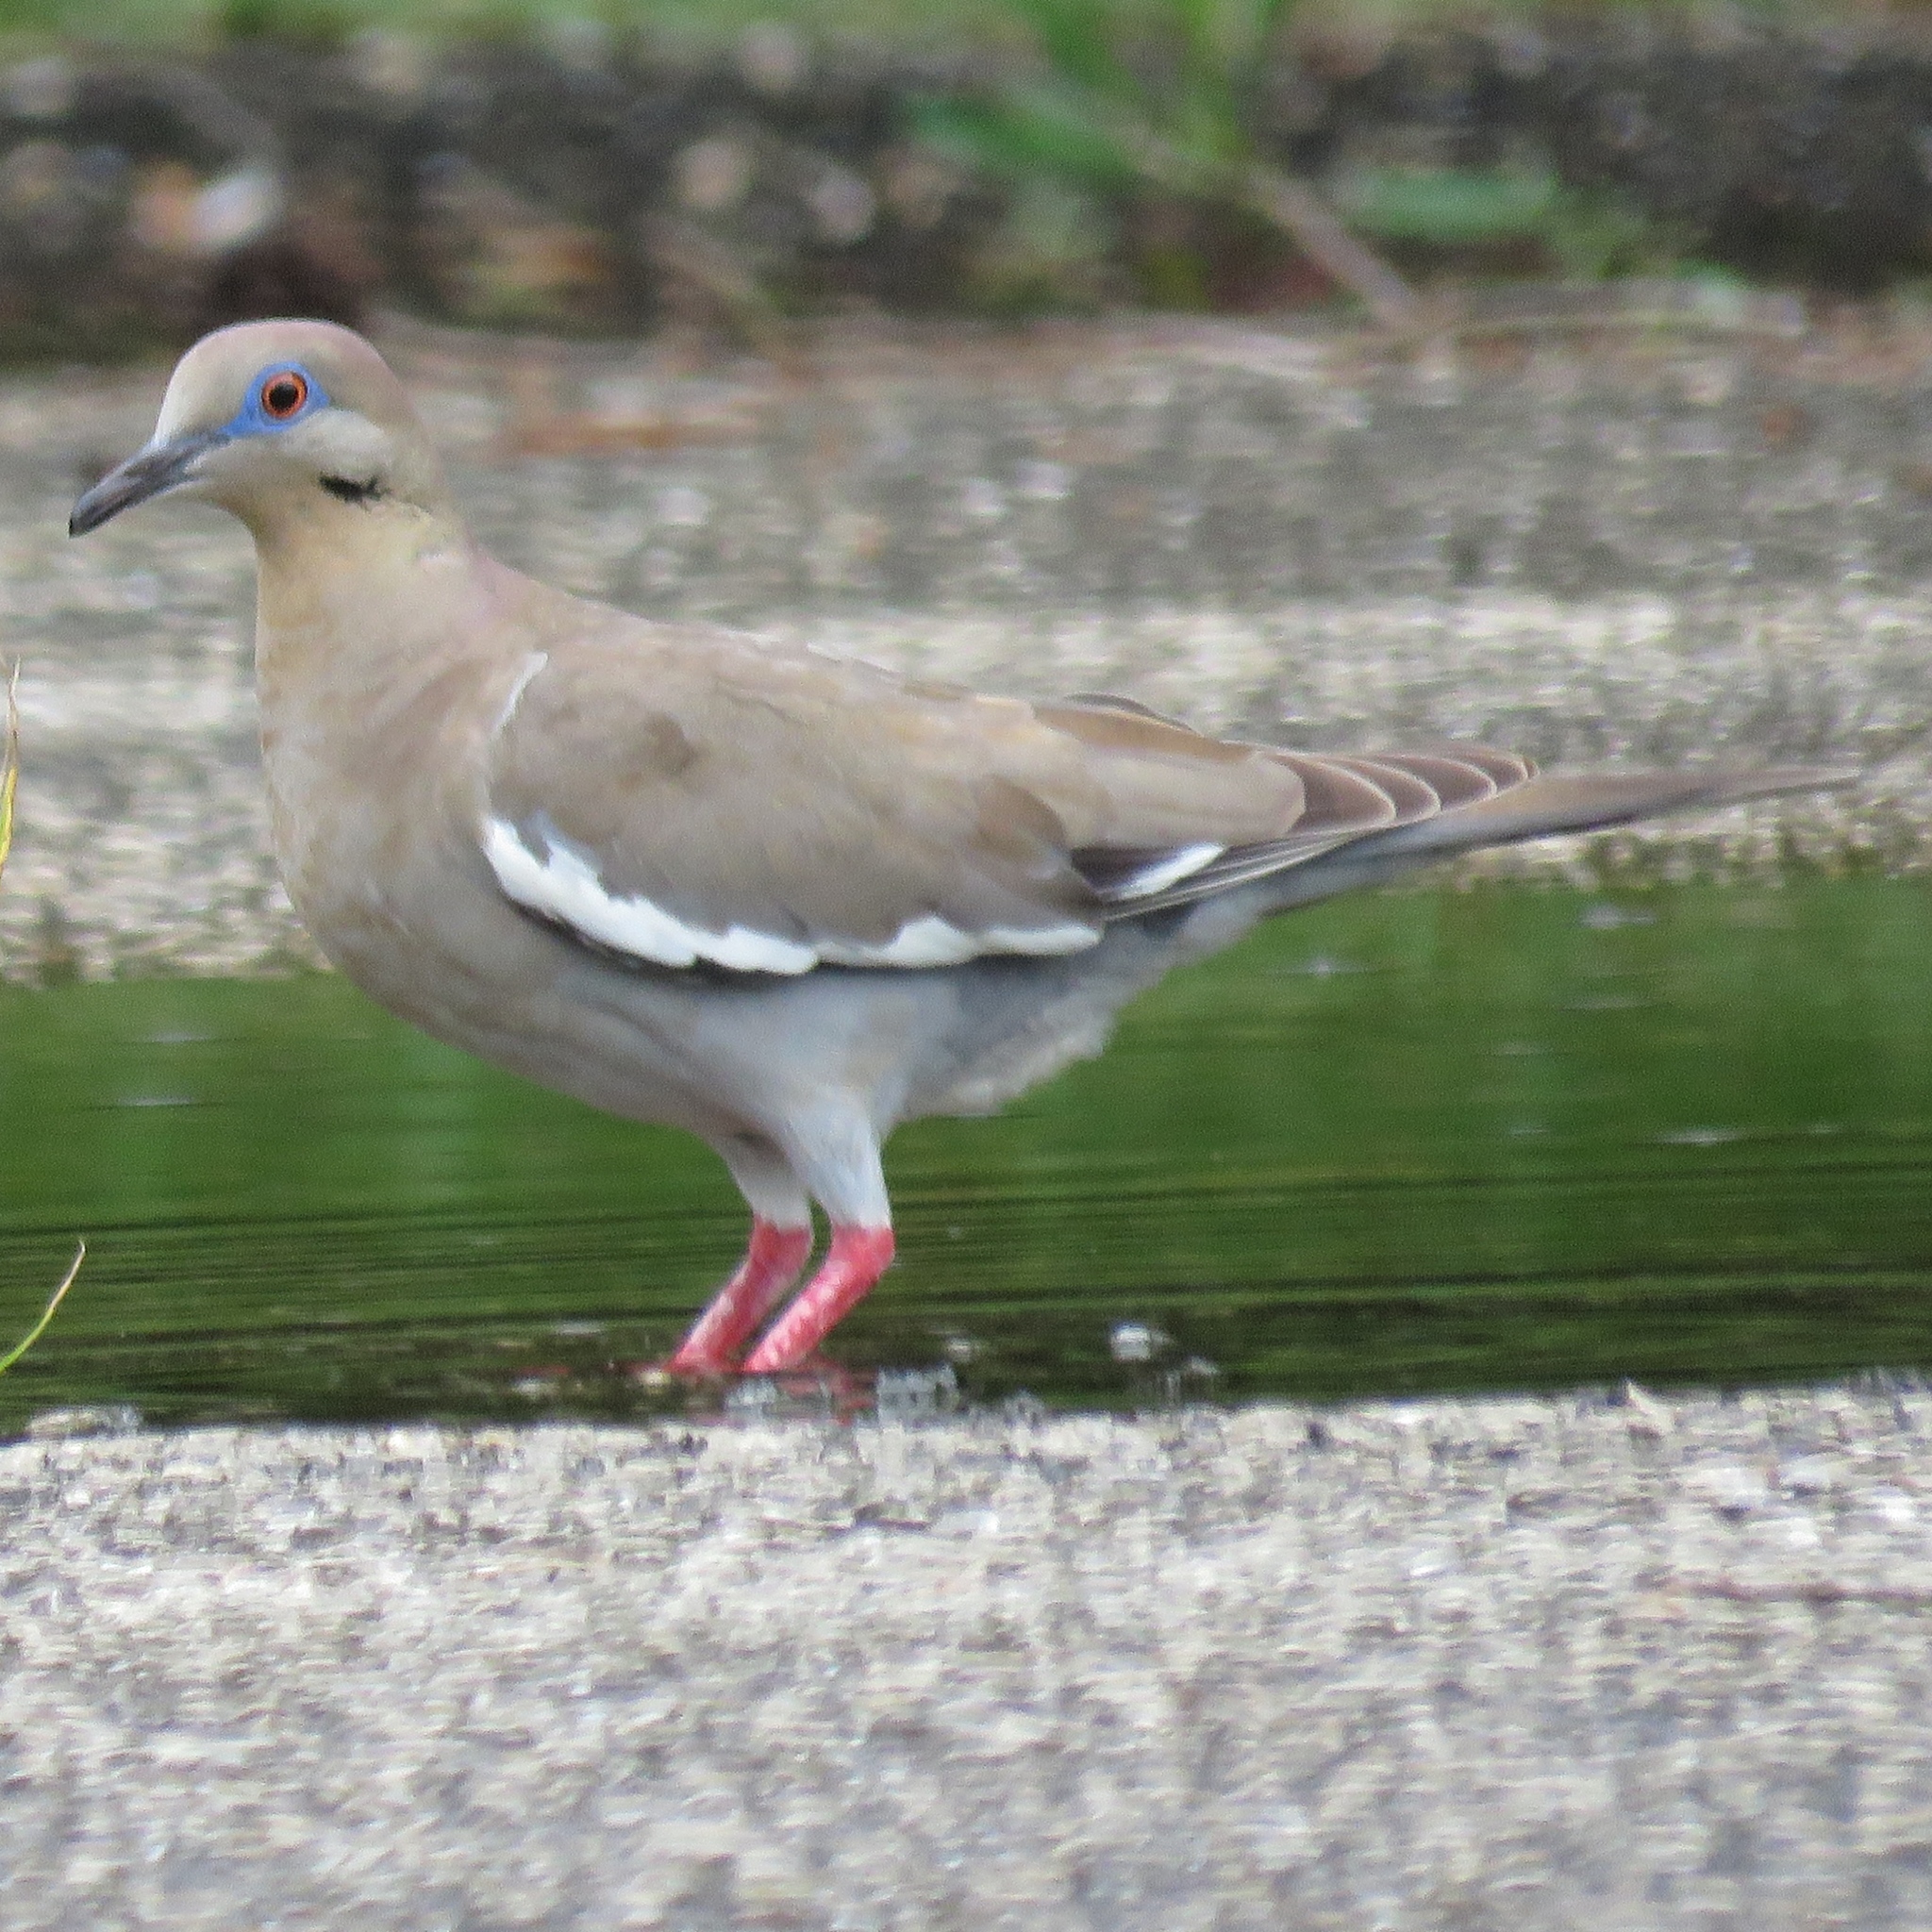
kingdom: Animalia
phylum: Chordata
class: Aves
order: Columbiformes
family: Columbidae
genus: Zenaida
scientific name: Zenaida asiatica
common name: White-winged dove
